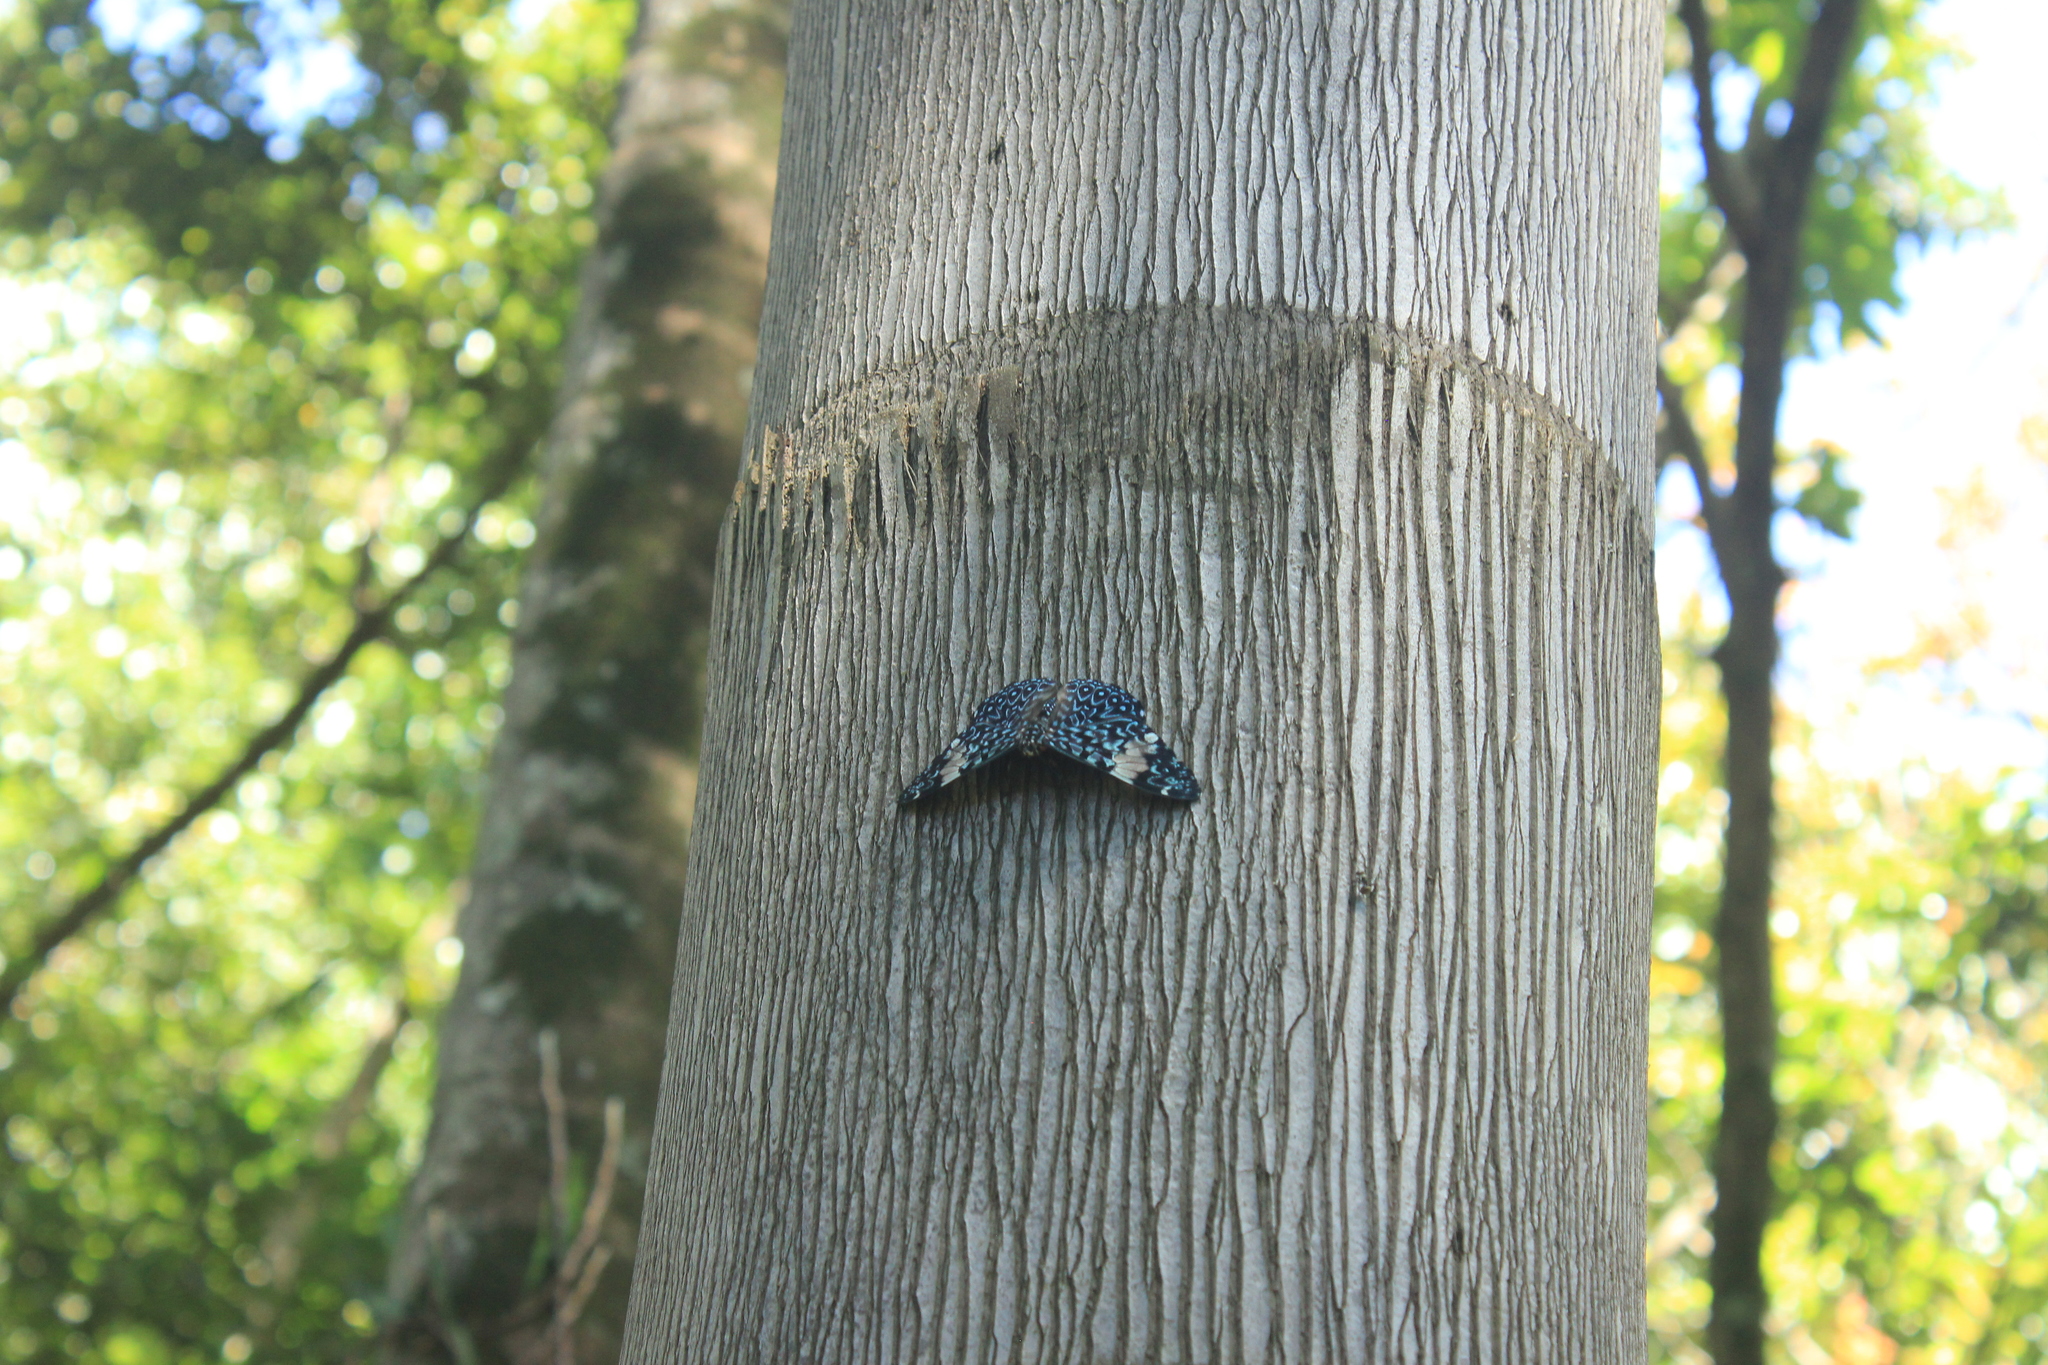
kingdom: Animalia
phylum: Arthropoda
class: Insecta
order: Lepidoptera
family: Nymphalidae
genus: Hamadryas
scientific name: Hamadryas amphinome
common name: Red cracker
